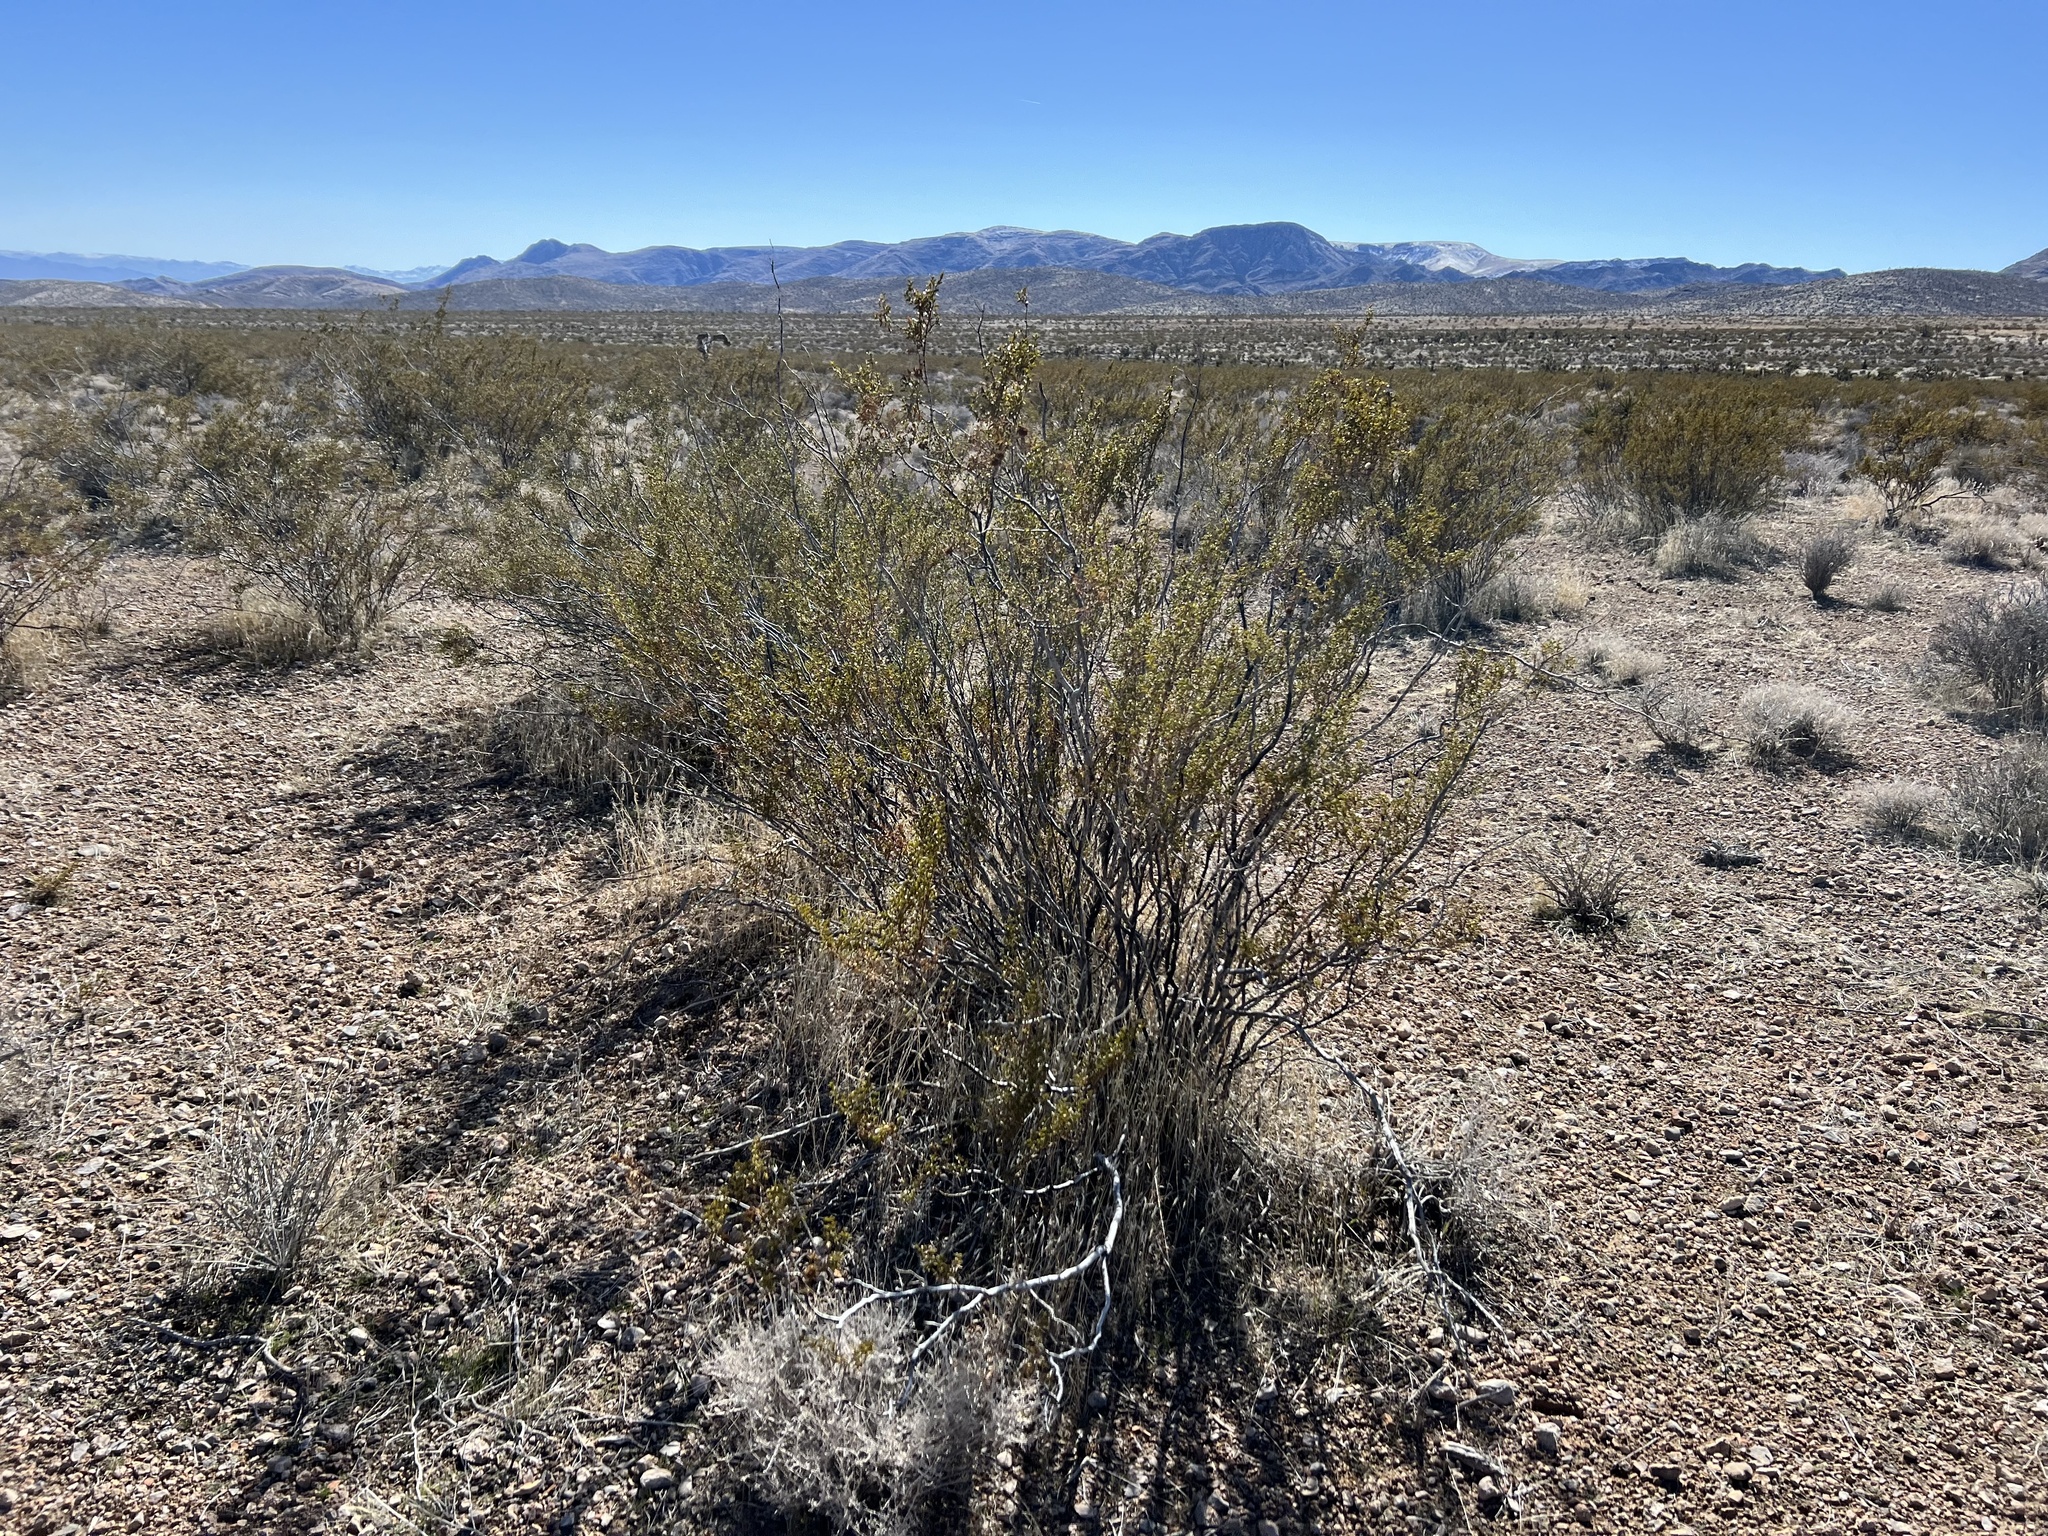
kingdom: Plantae
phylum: Tracheophyta
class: Magnoliopsida
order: Zygophyllales
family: Zygophyllaceae
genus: Larrea
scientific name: Larrea tridentata
